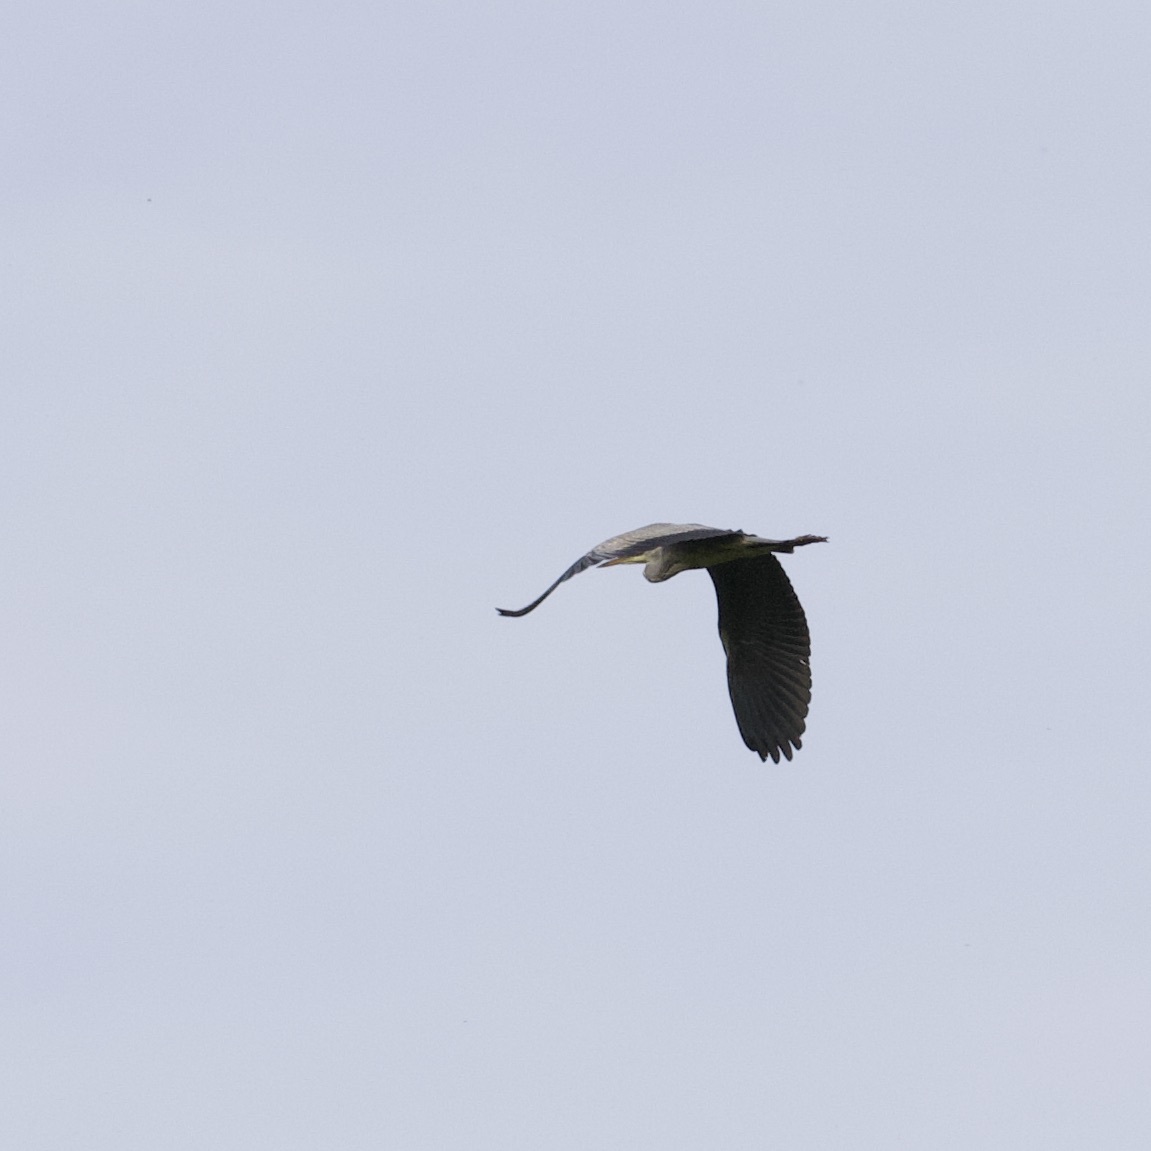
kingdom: Animalia
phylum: Chordata
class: Aves
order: Pelecaniformes
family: Ardeidae
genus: Ardea
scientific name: Ardea cinerea
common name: Grey heron
